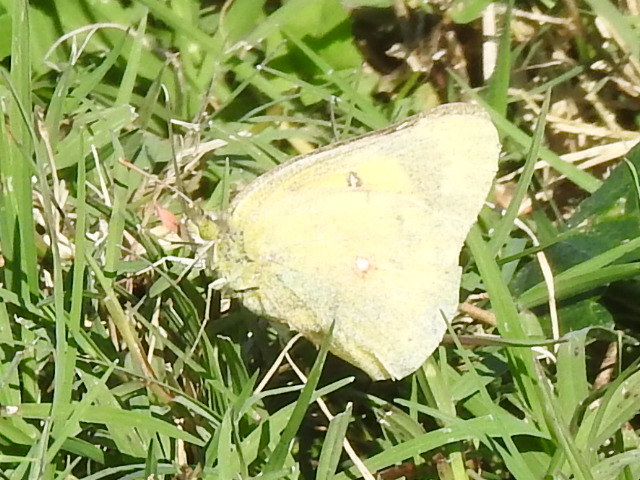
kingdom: Animalia
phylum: Arthropoda
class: Insecta
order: Lepidoptera
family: Pieridae
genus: Colias
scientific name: Colias eurytheme
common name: Alfalfa butterfly
